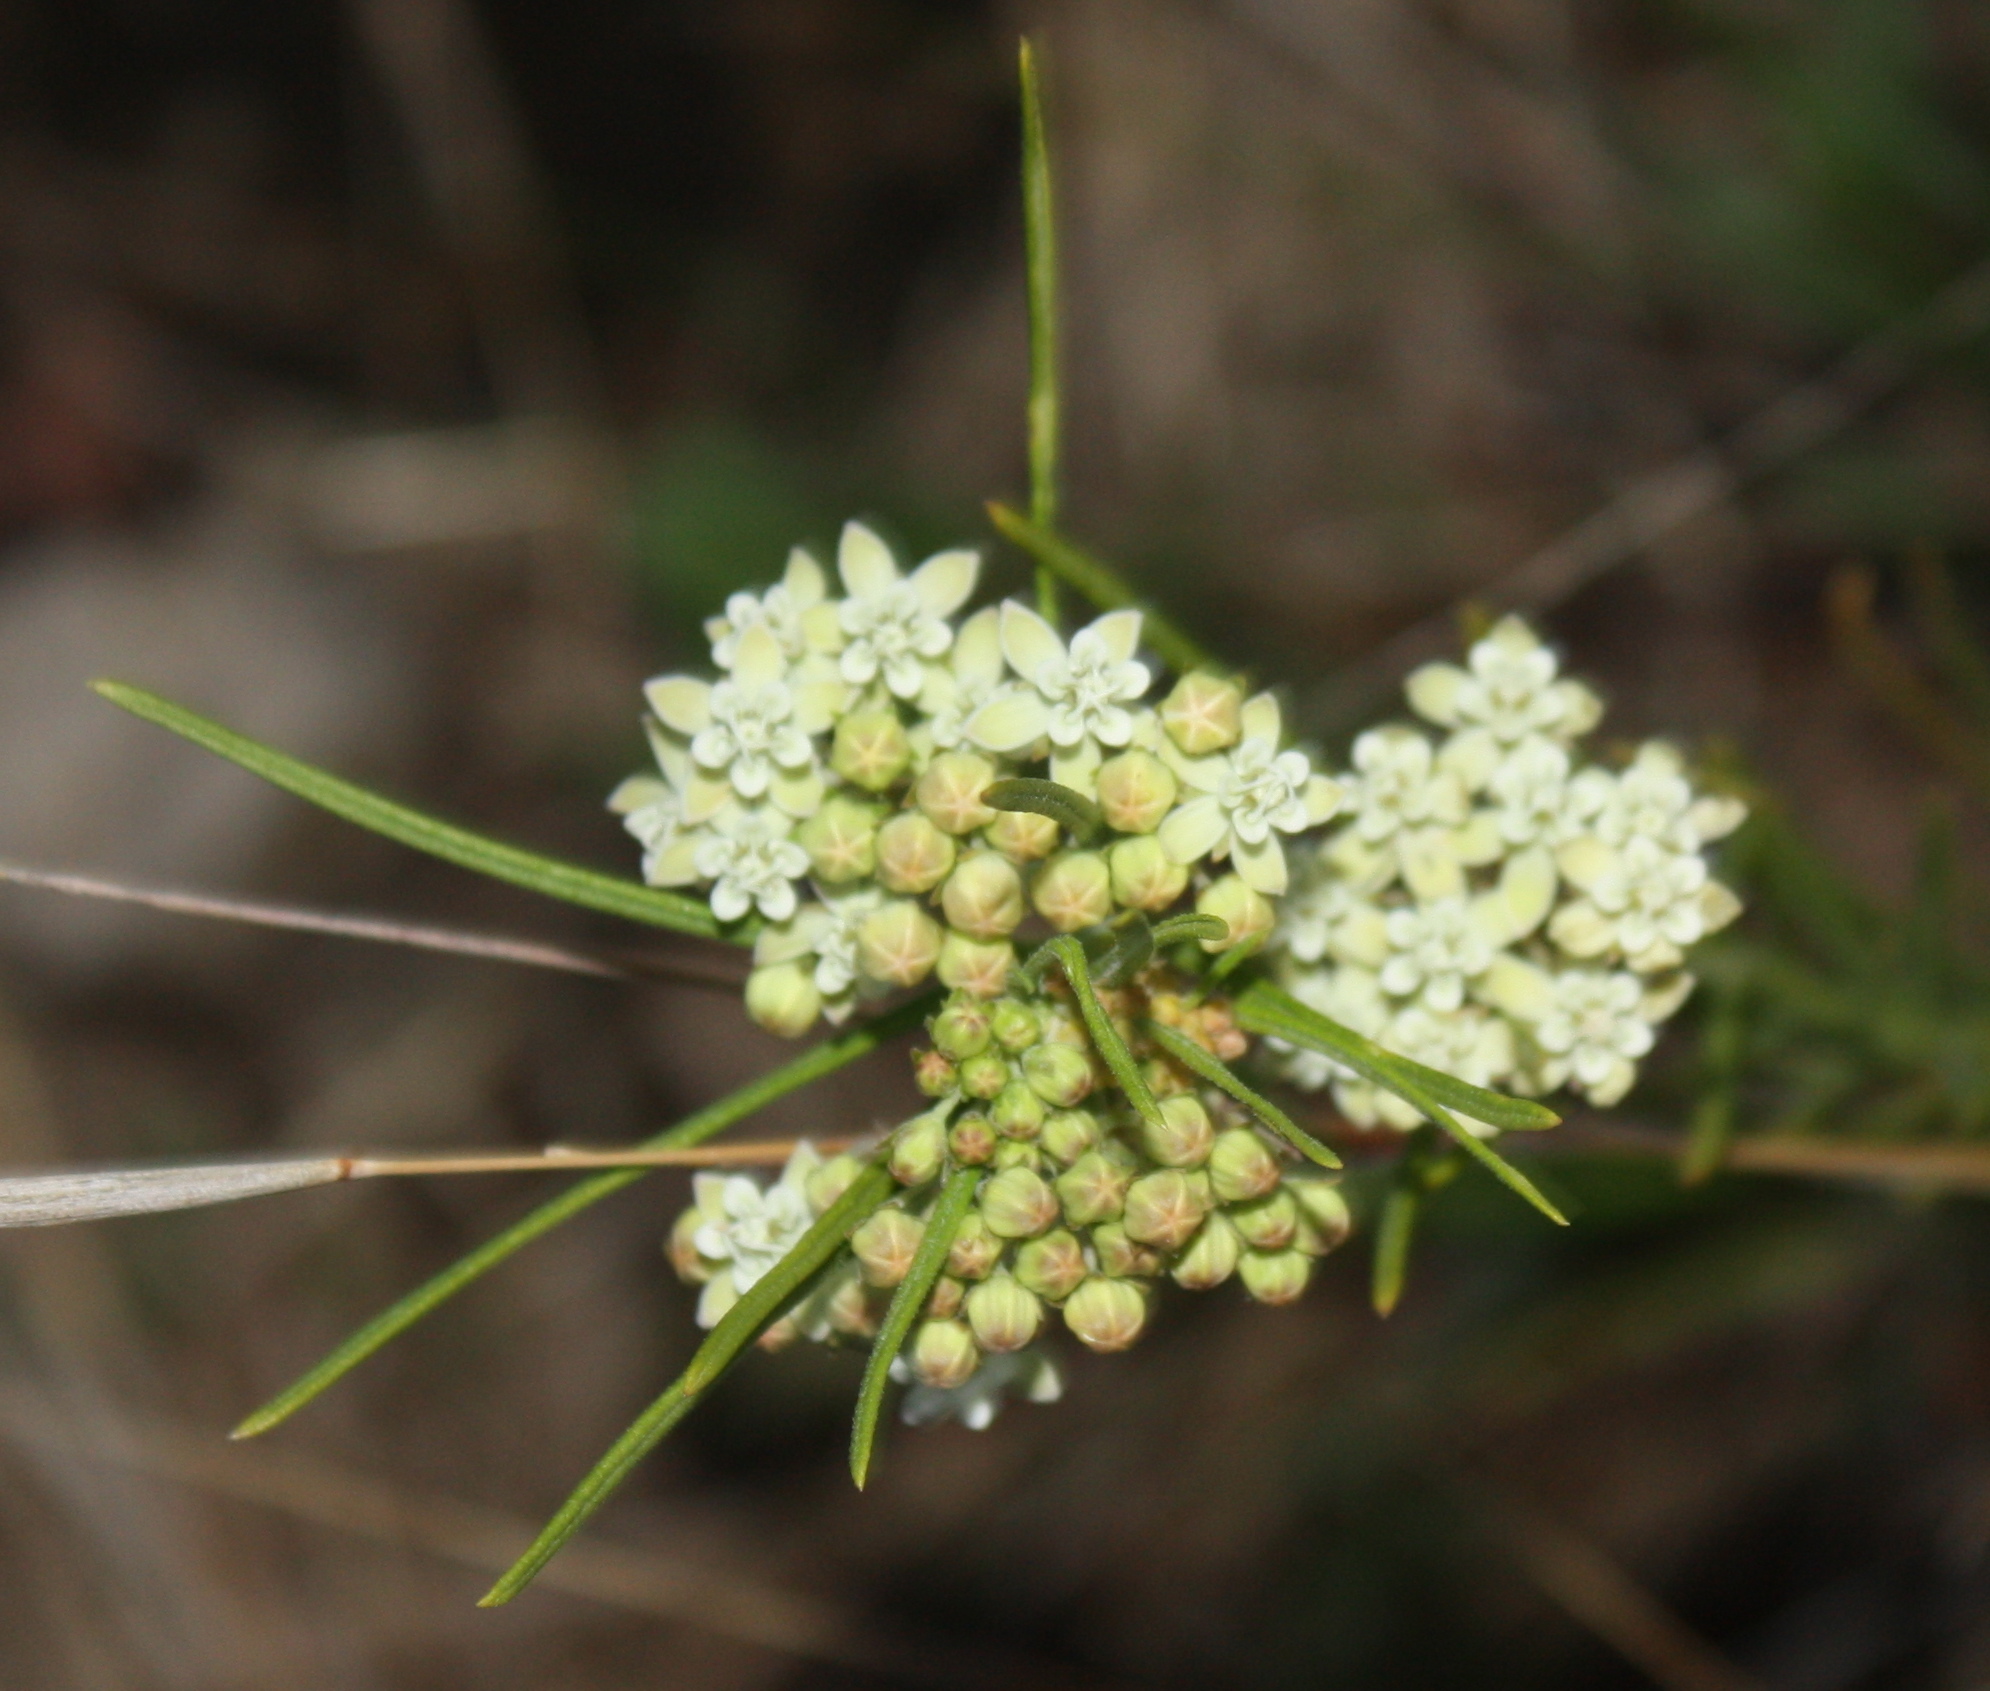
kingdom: Plantae
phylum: Tracheophyta
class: Magnoliopsida
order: Gentianales
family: Apocynaceae
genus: Asclepias
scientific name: Asclepias verticillata
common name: Eastern whorled milkweed
